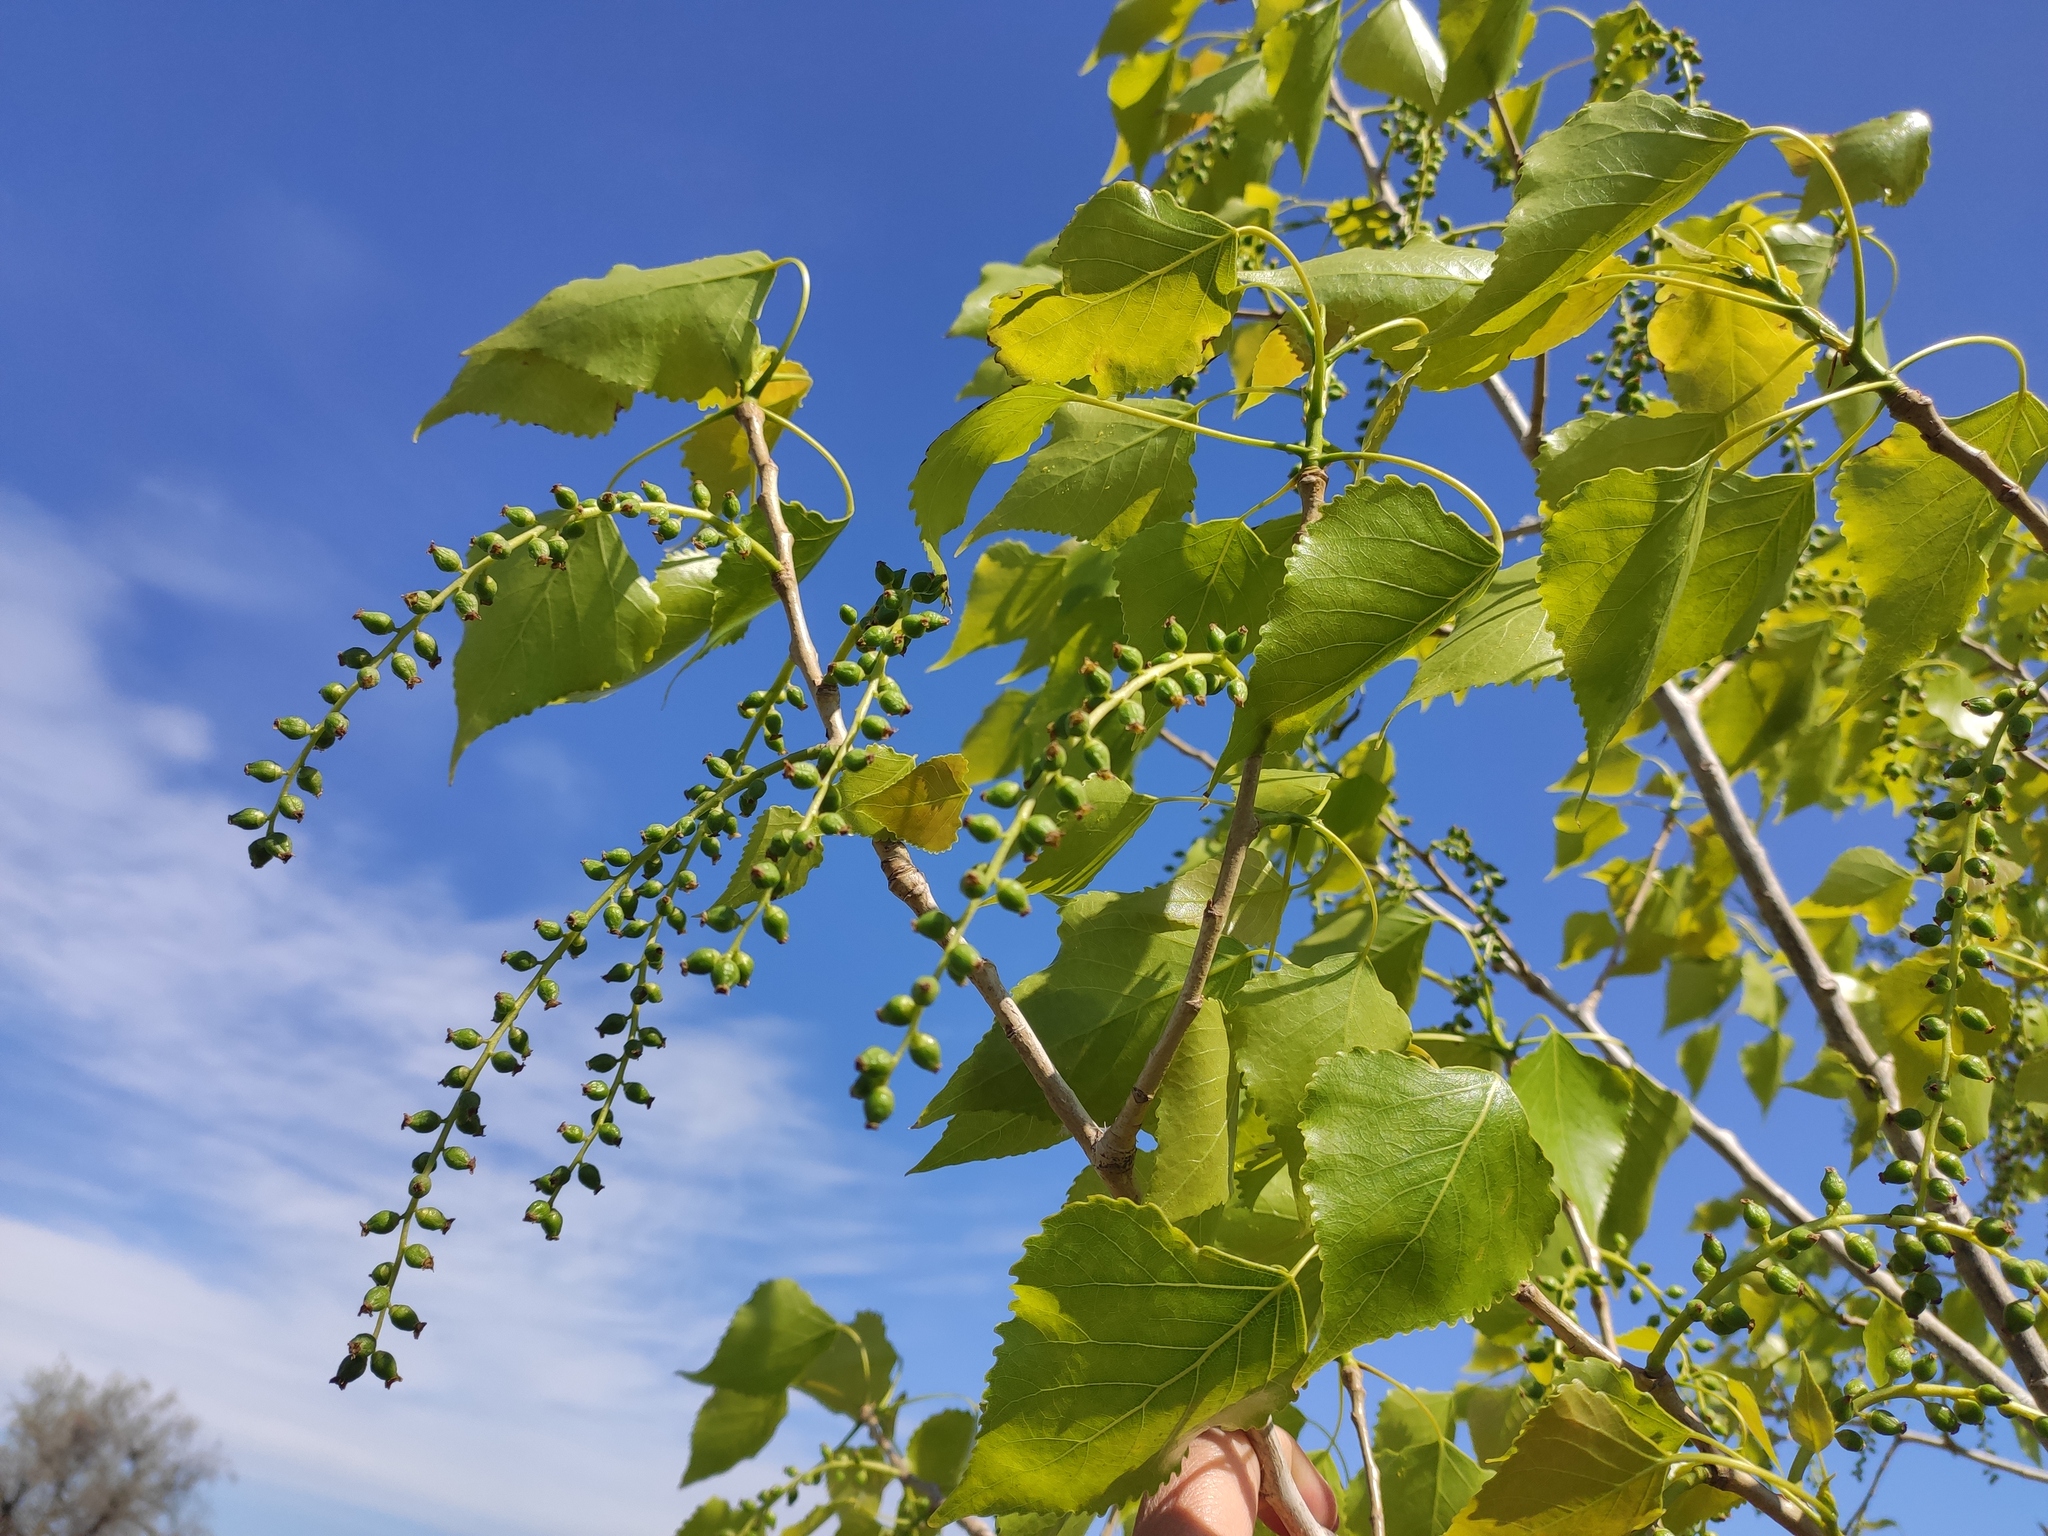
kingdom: Plantae
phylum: Tracheophyta
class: Magnoliopsida
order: Malpighiales
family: Salicaceae
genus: Populus
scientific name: Populus nigra
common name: Black poplar
